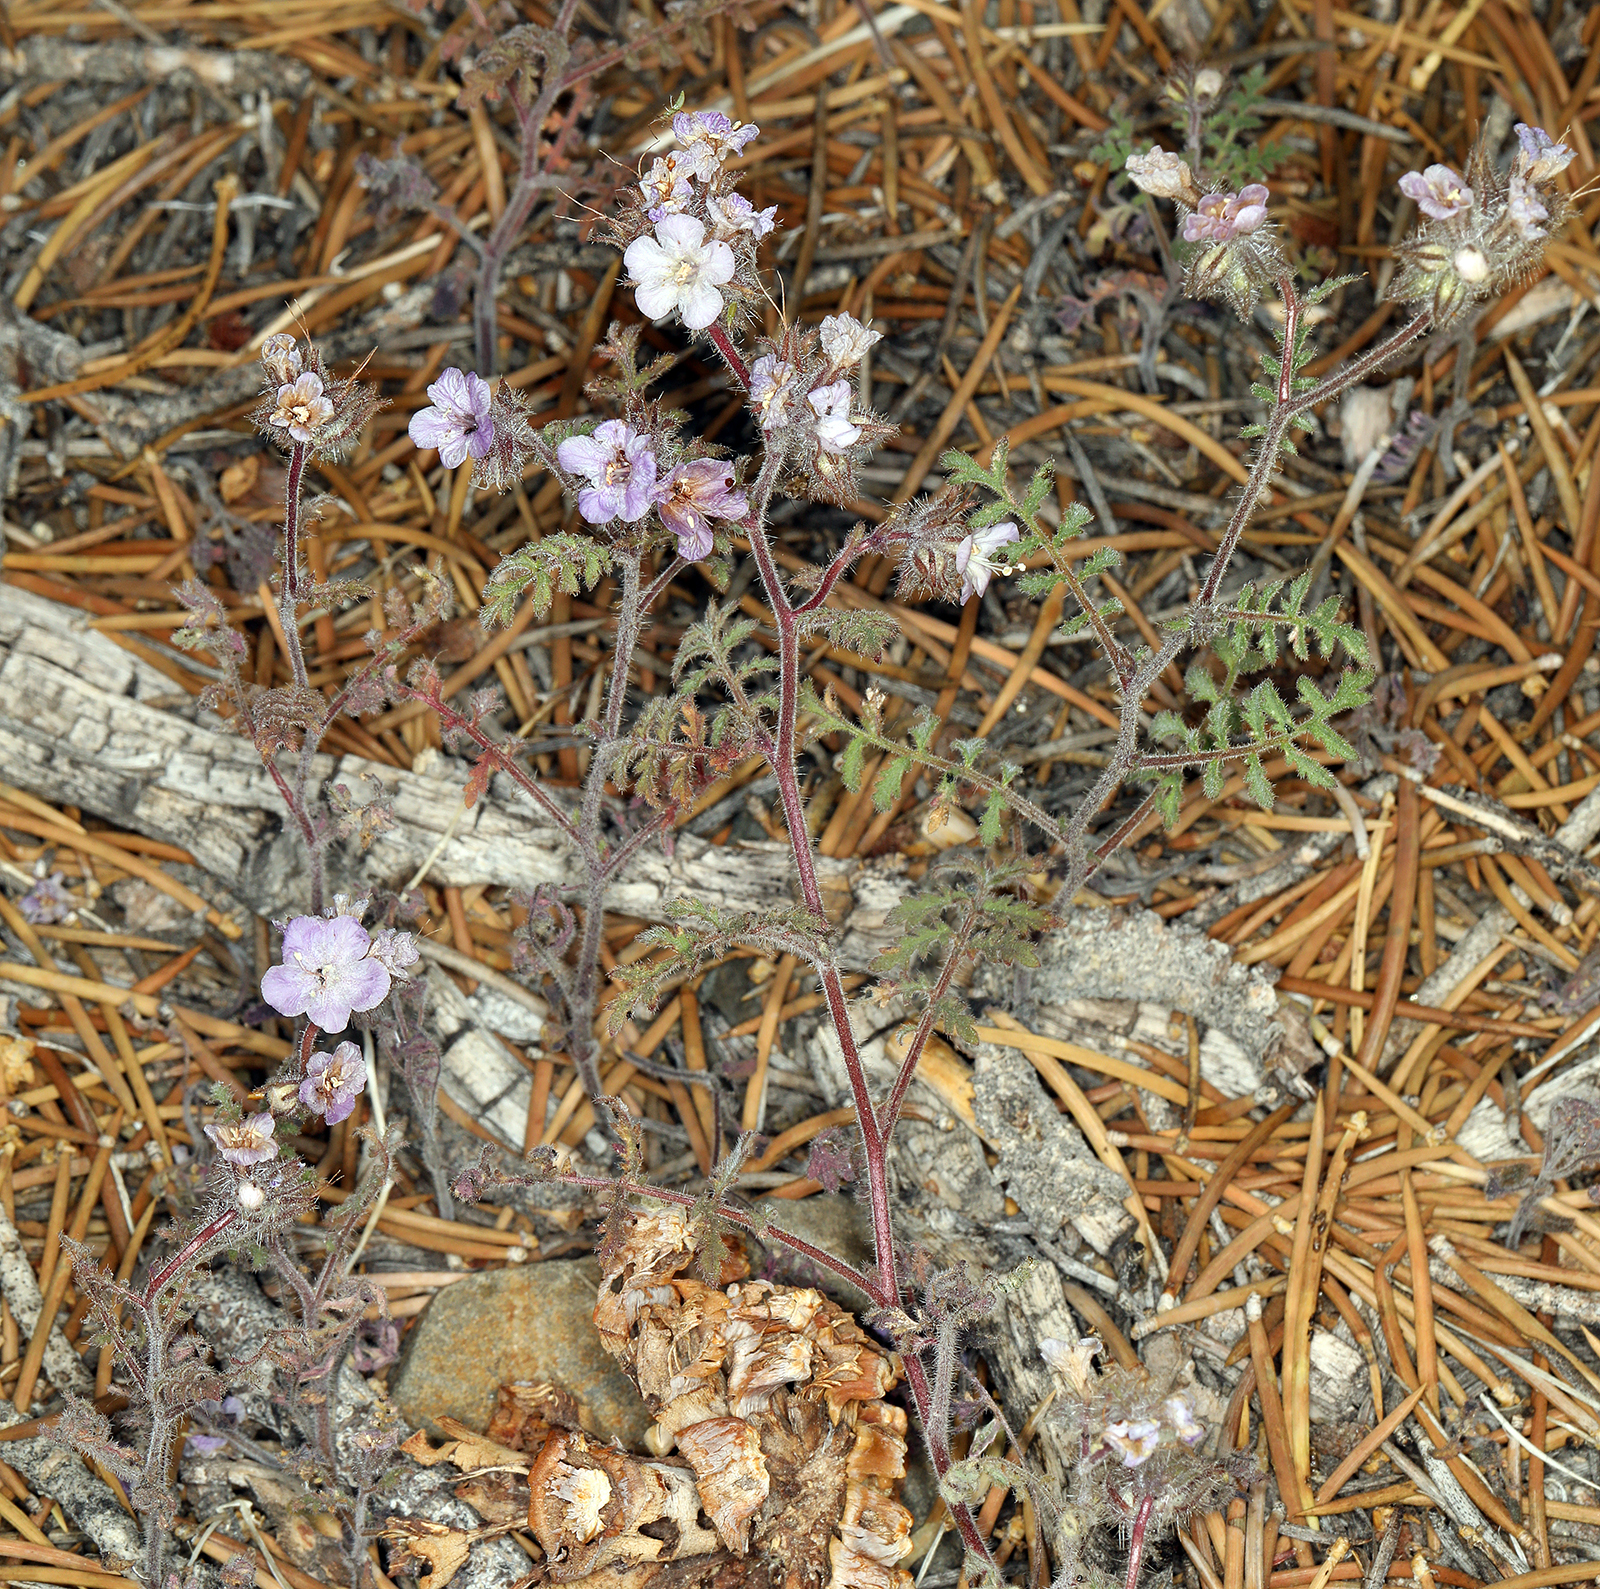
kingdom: Plantae
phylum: Tracheophyta
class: Magnoliopsida
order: Boraginales
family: Hydrophyllaceae
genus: Phacelia
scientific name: Phacelia vallis-mortae
